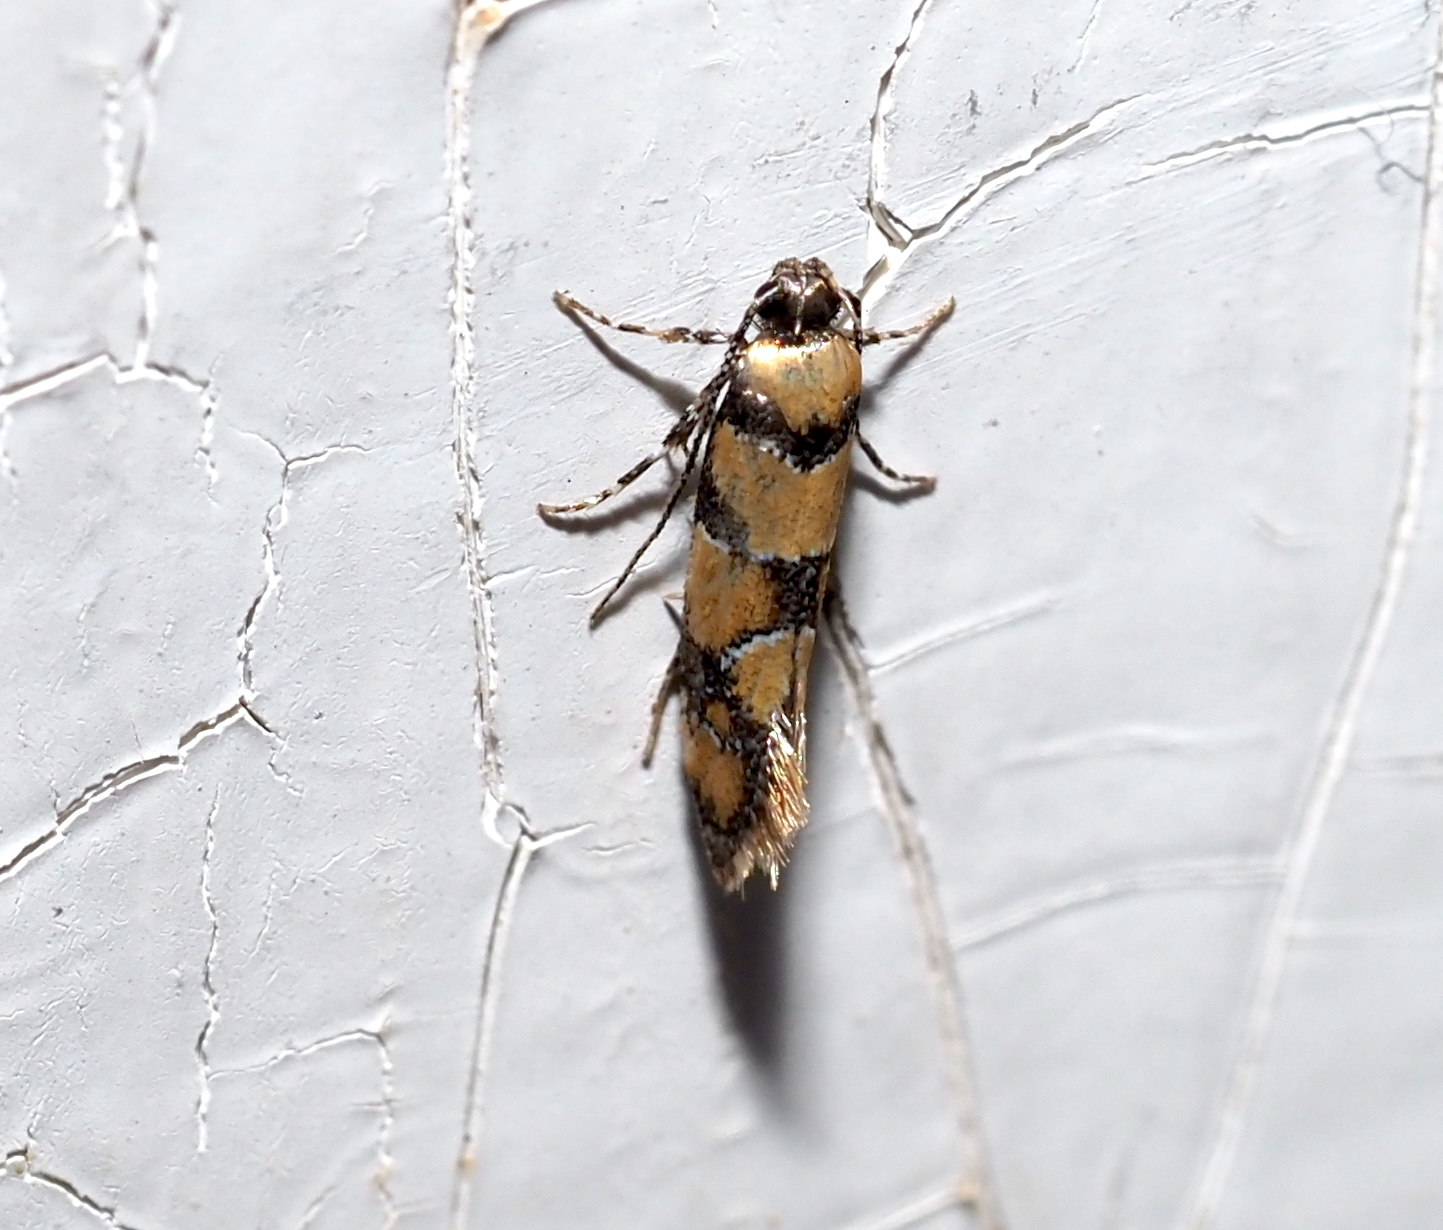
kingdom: Animalia
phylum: Arthropoda
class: Insecta
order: Lepidoptera
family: Oecophoridae
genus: Decantha
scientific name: Decantha borkhausenii
